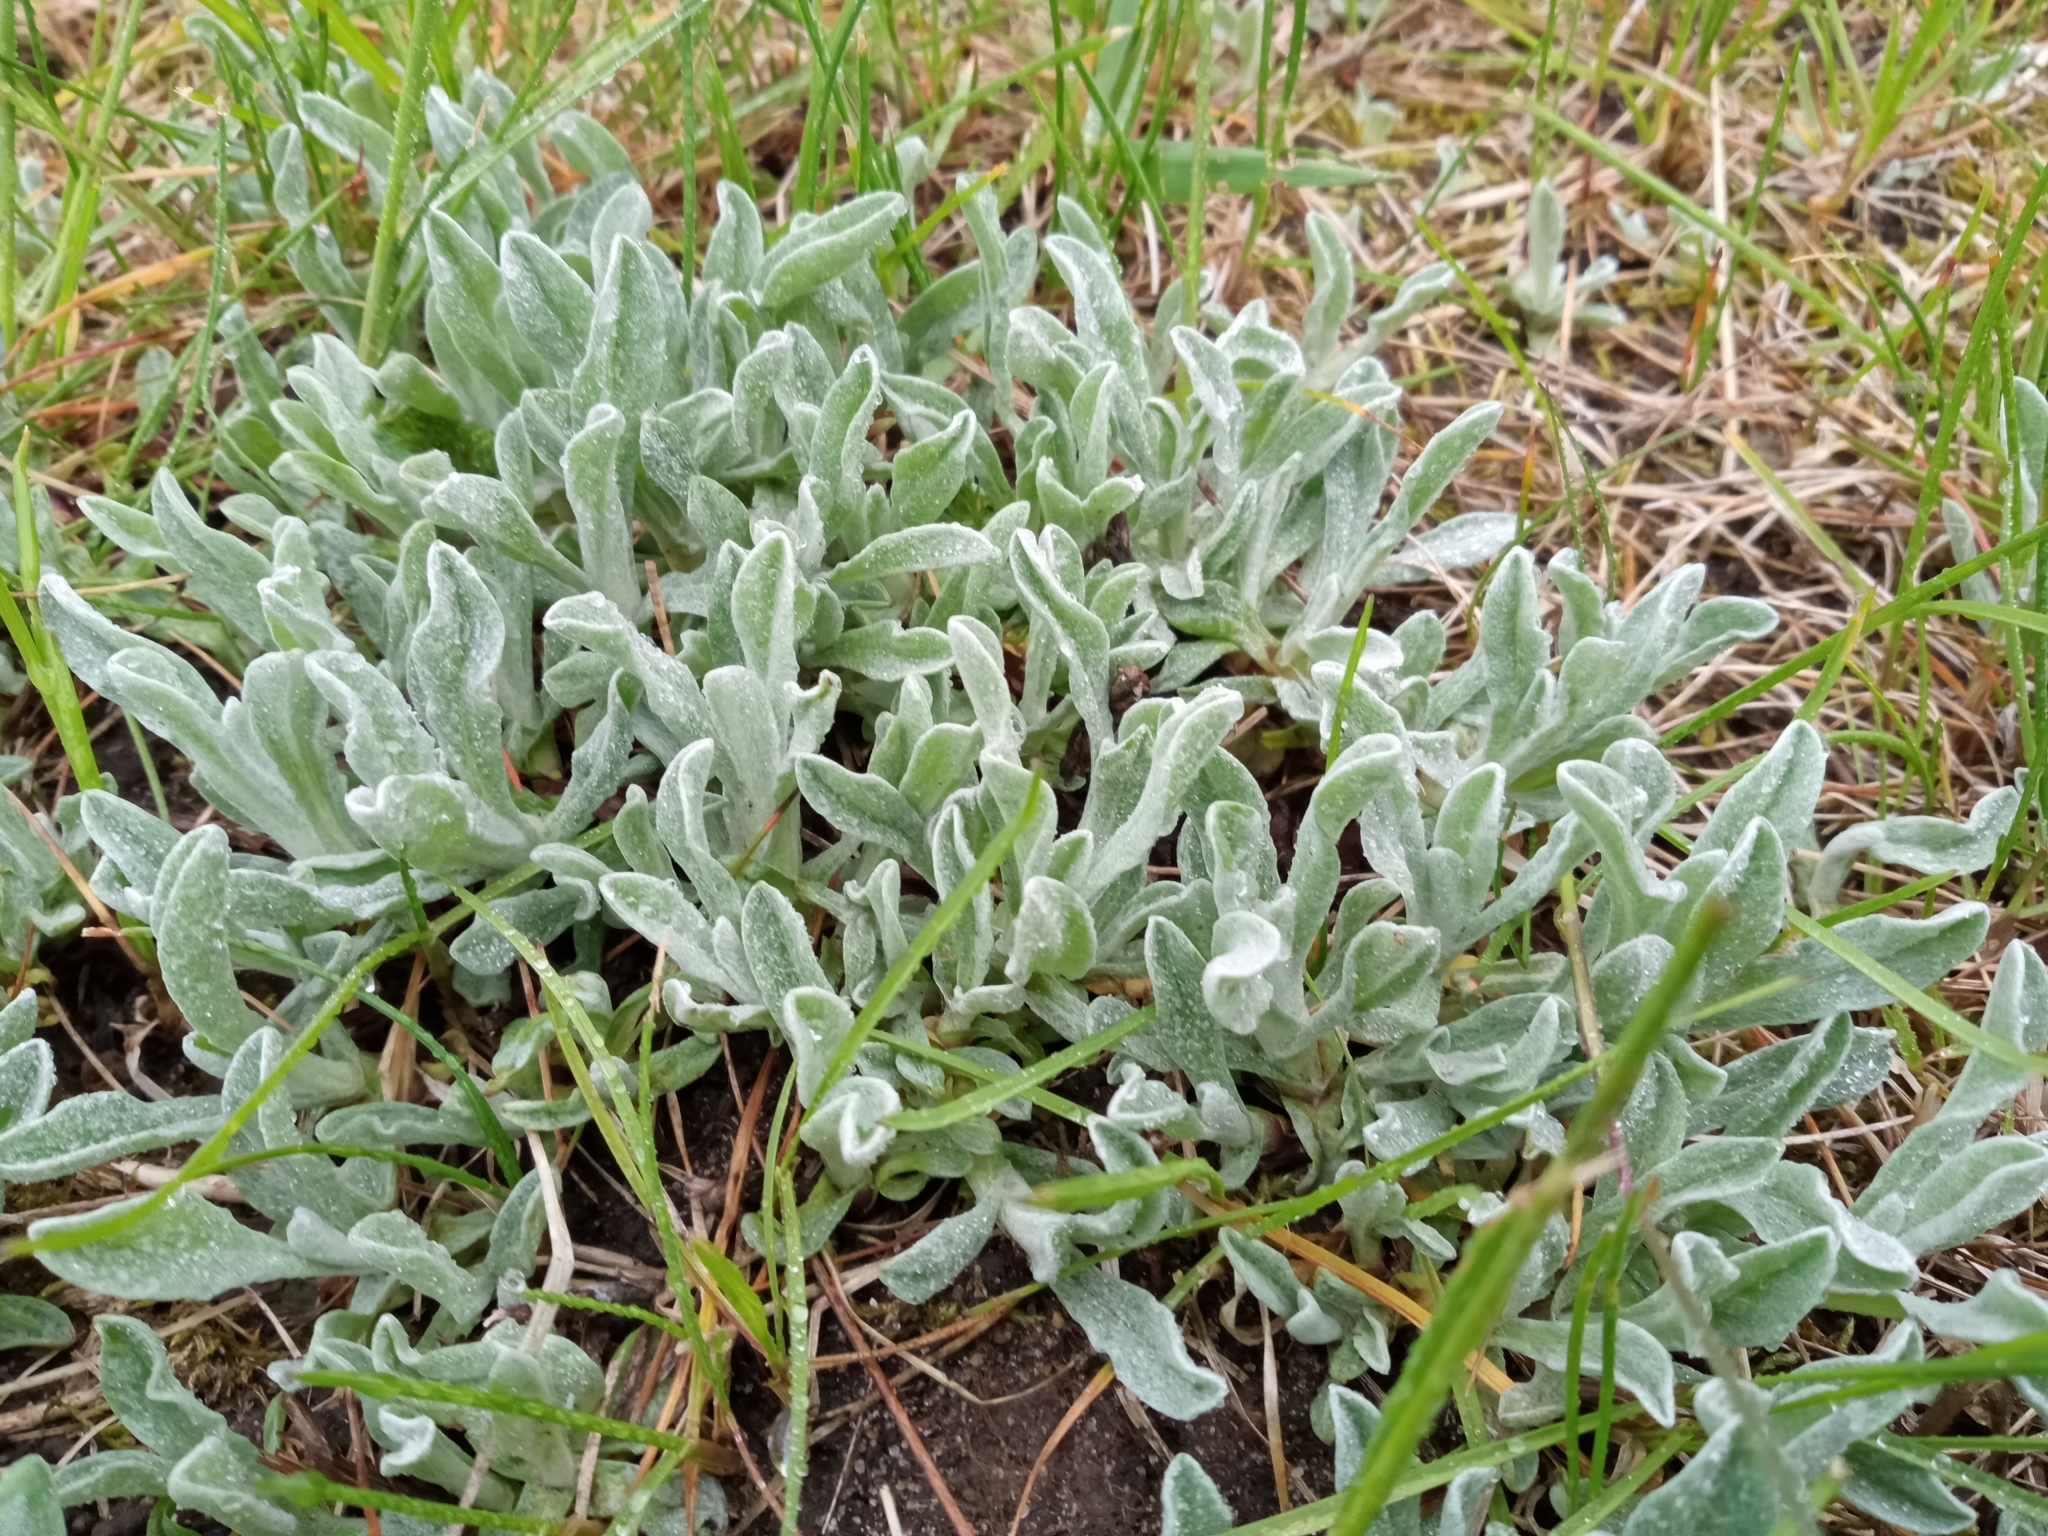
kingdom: Plantae
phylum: Tracheophyta
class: Magnoliopsida
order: Asterales
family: Asteraceae
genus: Helichrysum
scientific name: Helichrysum arenarium
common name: Strawflower
